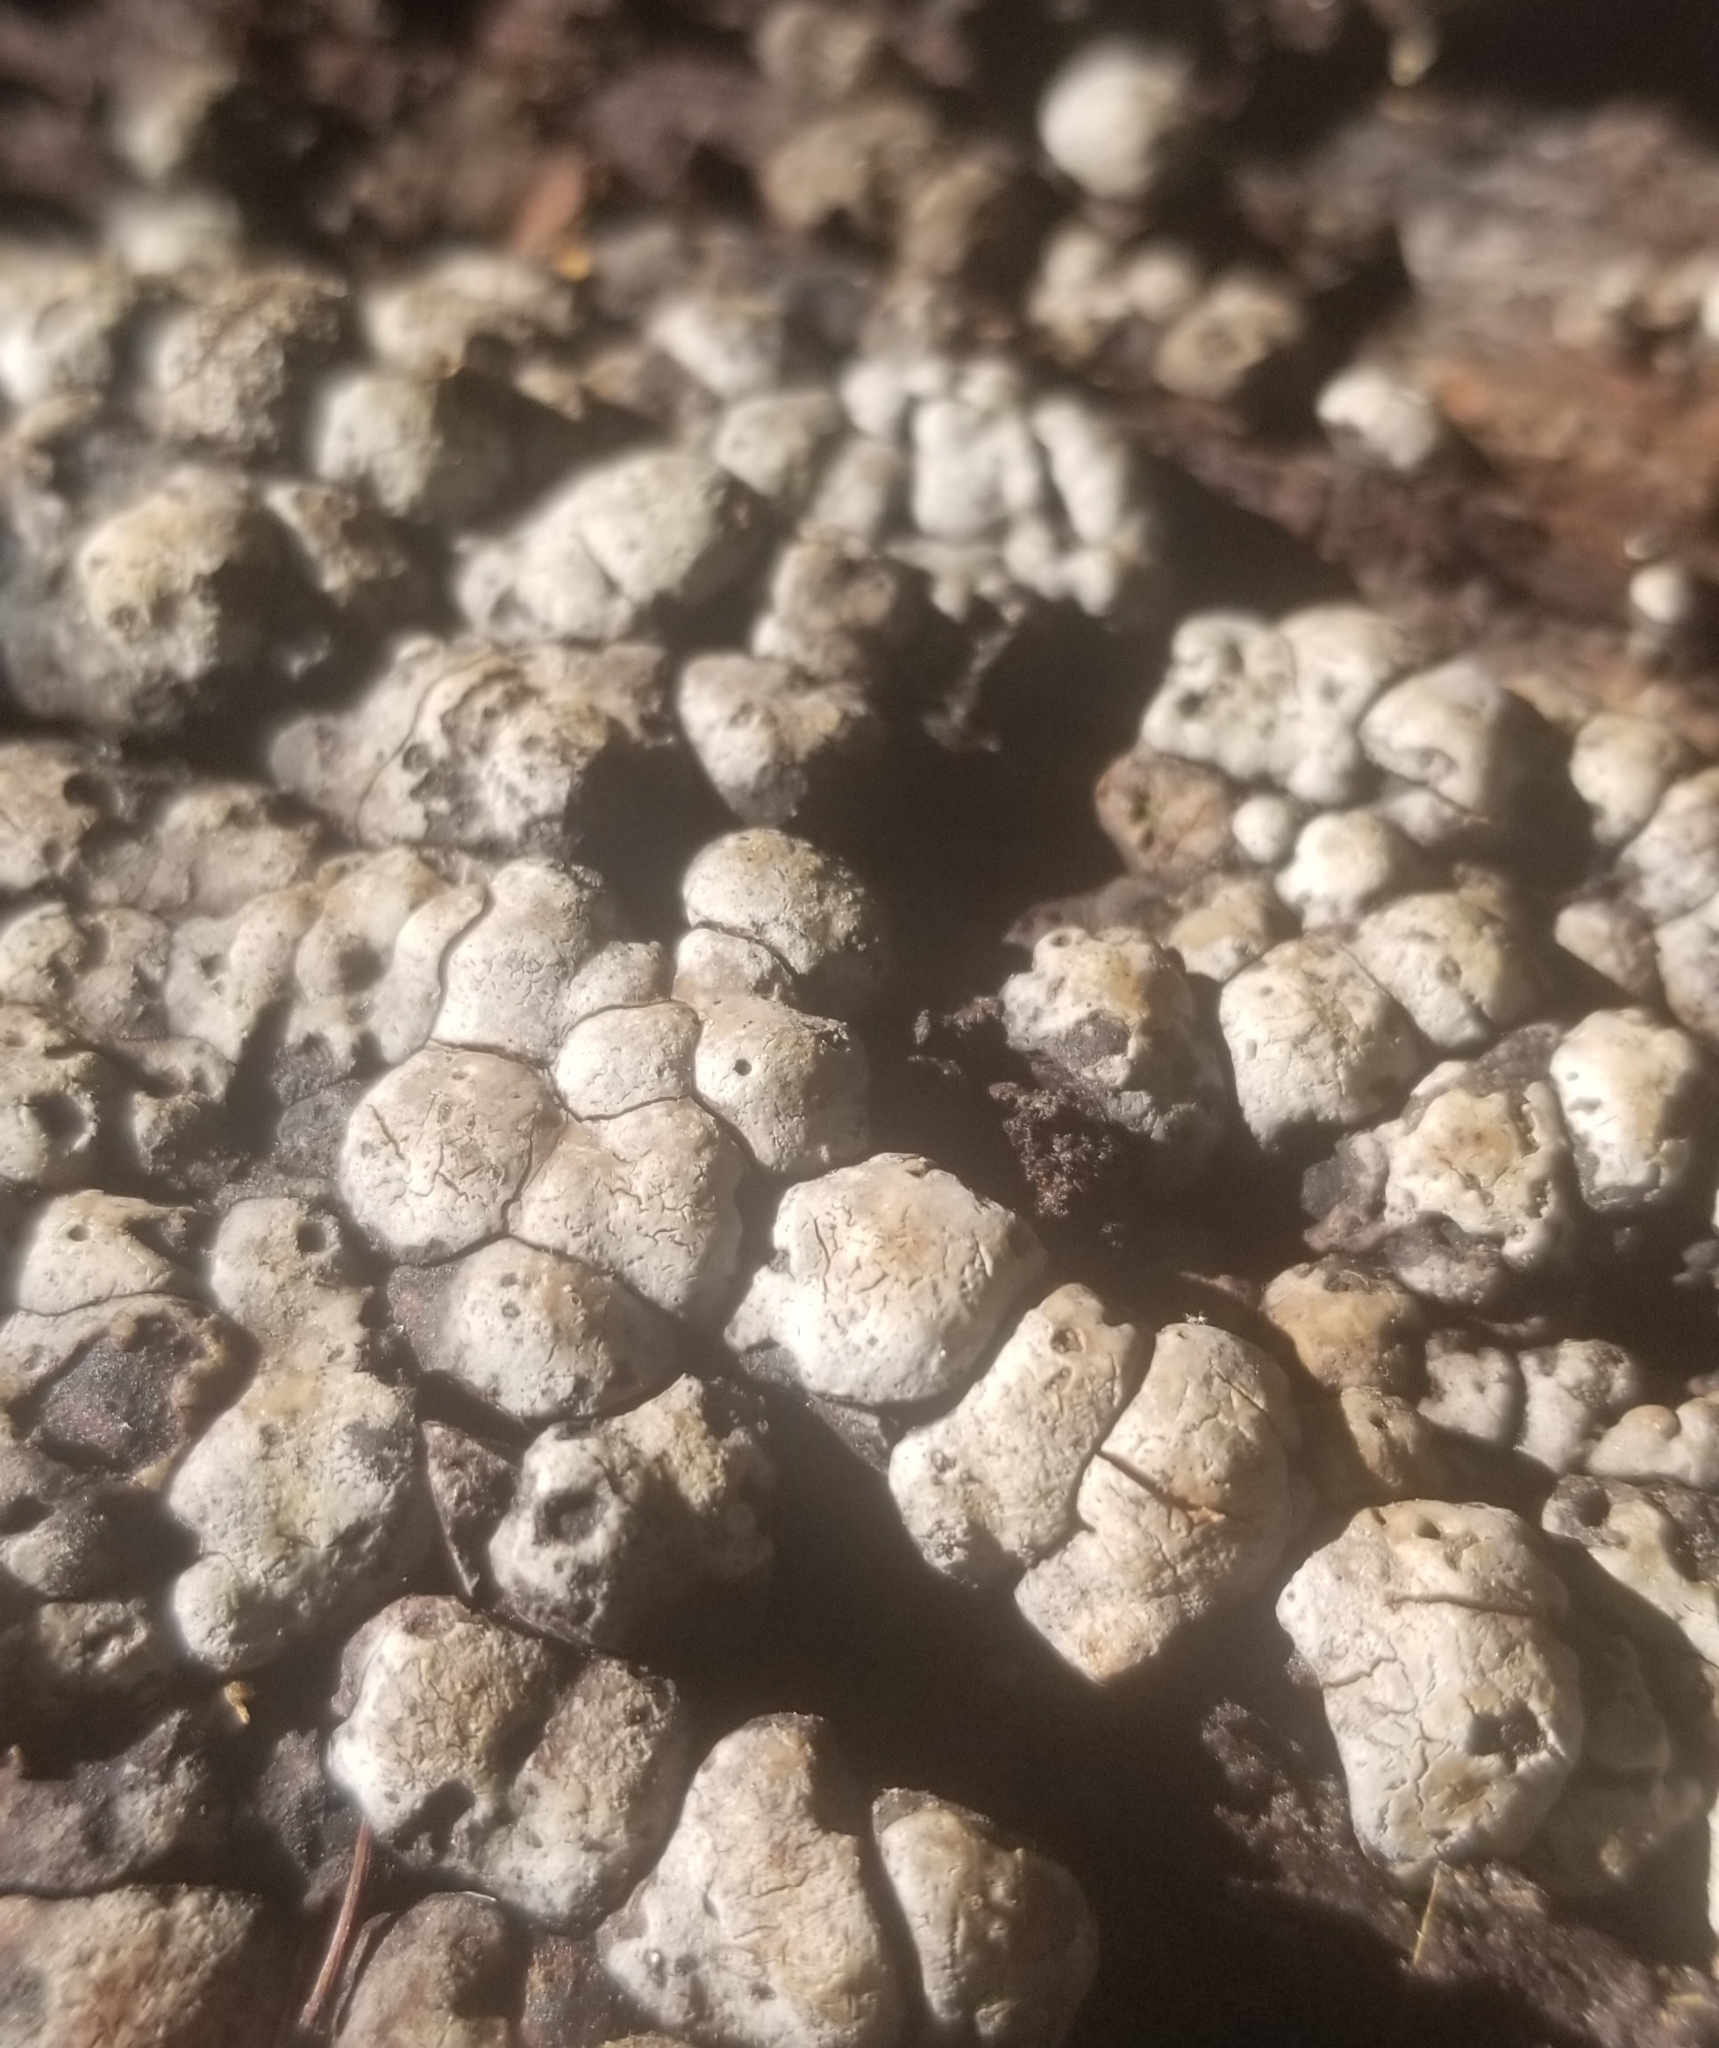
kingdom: Fungi
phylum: Basidiomycota
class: Agaricomycetes
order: Russulales
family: Stereaceae
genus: Xylobolus
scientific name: Xylobolus frustulatus
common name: Ceramic parchment
